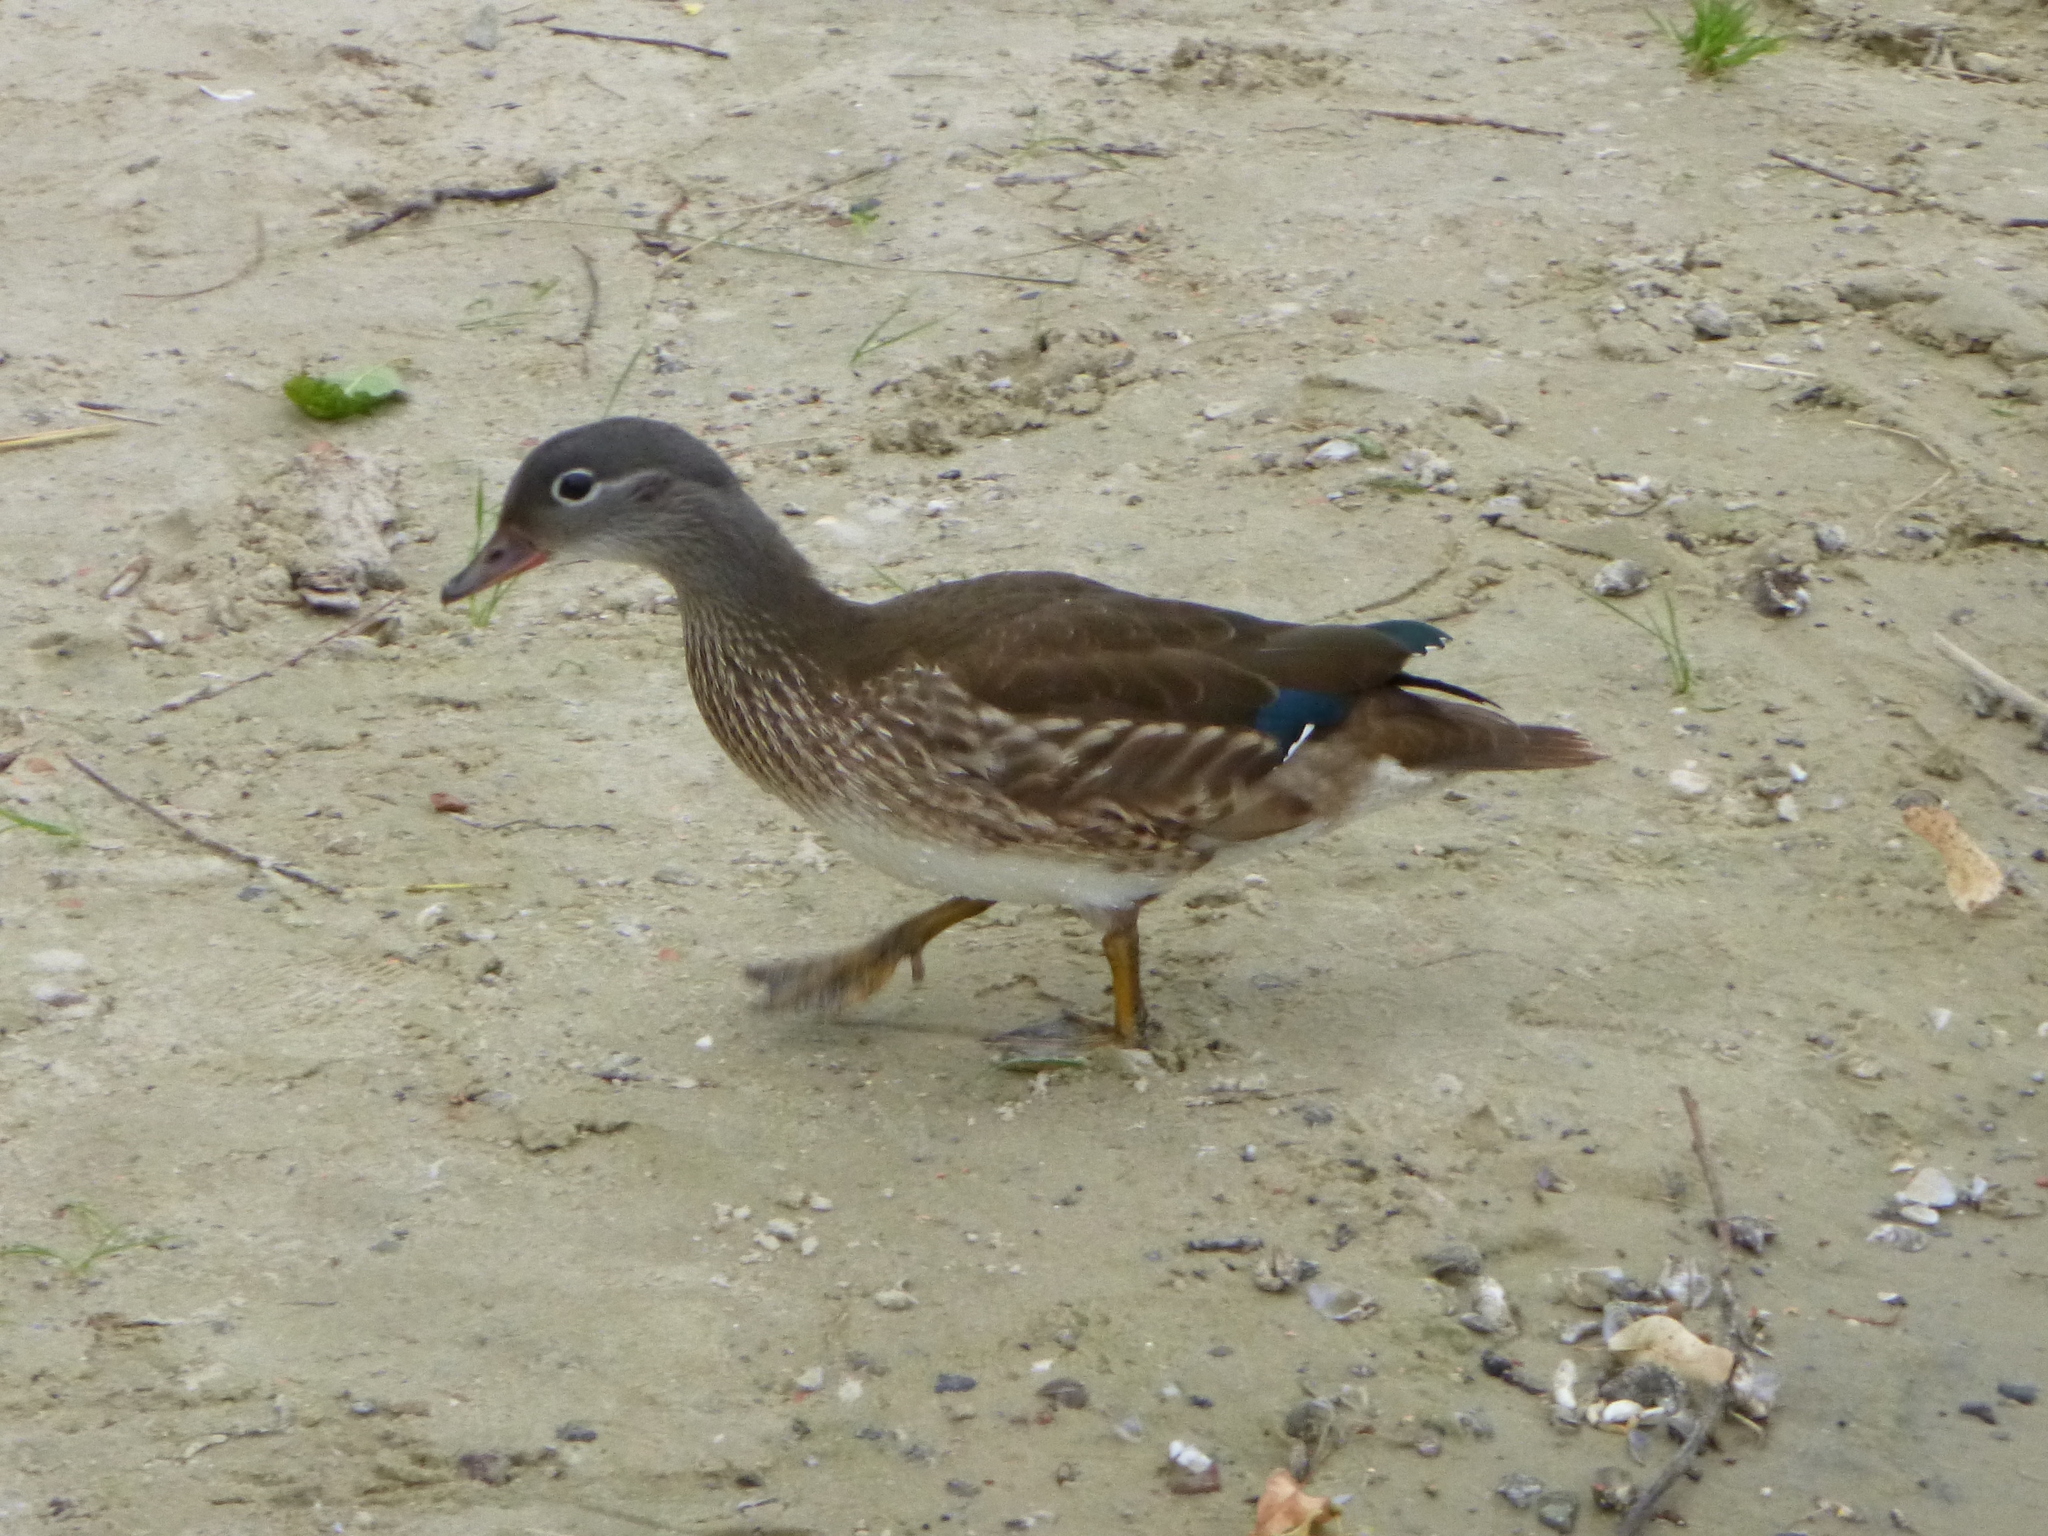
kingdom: Animalia
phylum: Chordata
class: Aves
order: Anseriformes
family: Anatidae
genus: Aix
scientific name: Aix galericulata
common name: Mandarin duck
